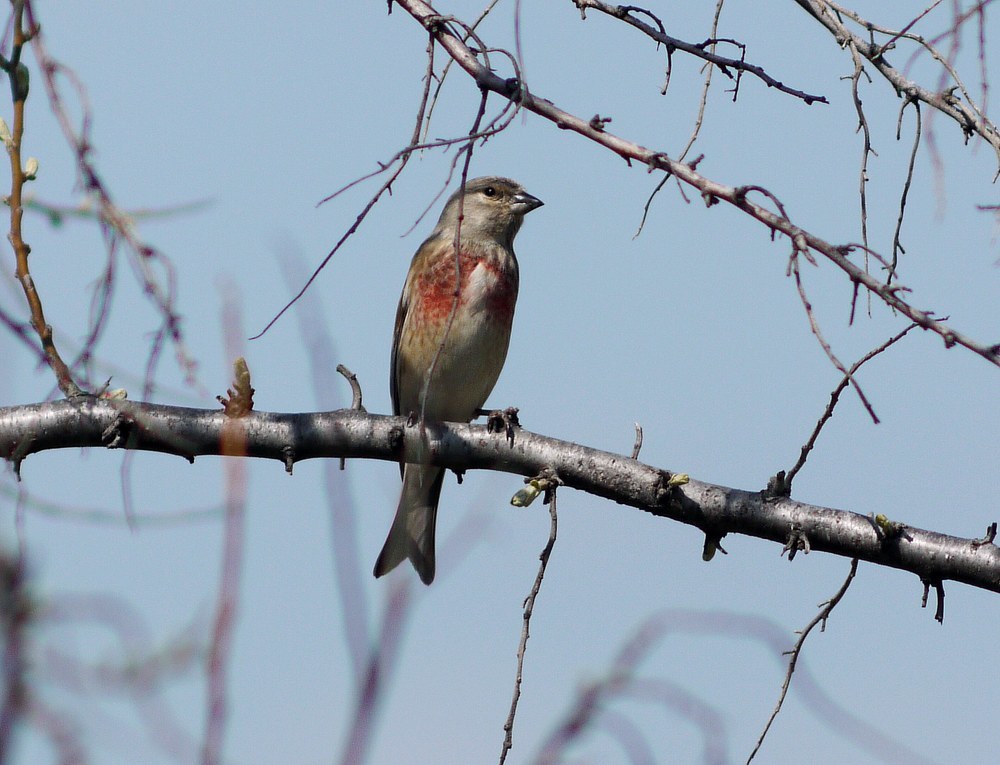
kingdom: Animalia
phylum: Chordata
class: Aves
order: Passeriformes
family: Fringillidae
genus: Linaria
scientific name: Linaria cannabina
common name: Common linnet
